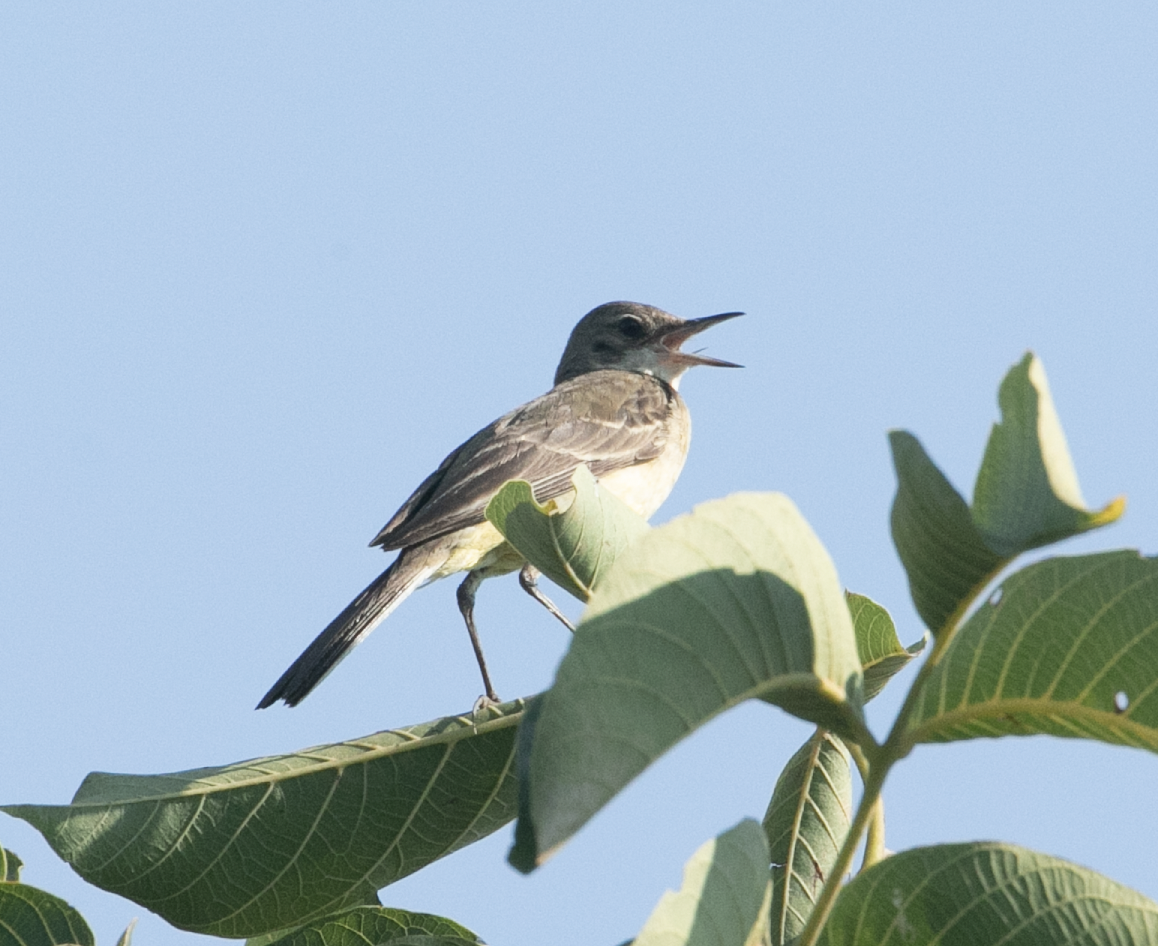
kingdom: Animalia
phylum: Chordata
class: Aves
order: Passeriformes
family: Motacillidae
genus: Motacilla
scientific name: Motacilla flava
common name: Western yellow wagtail
